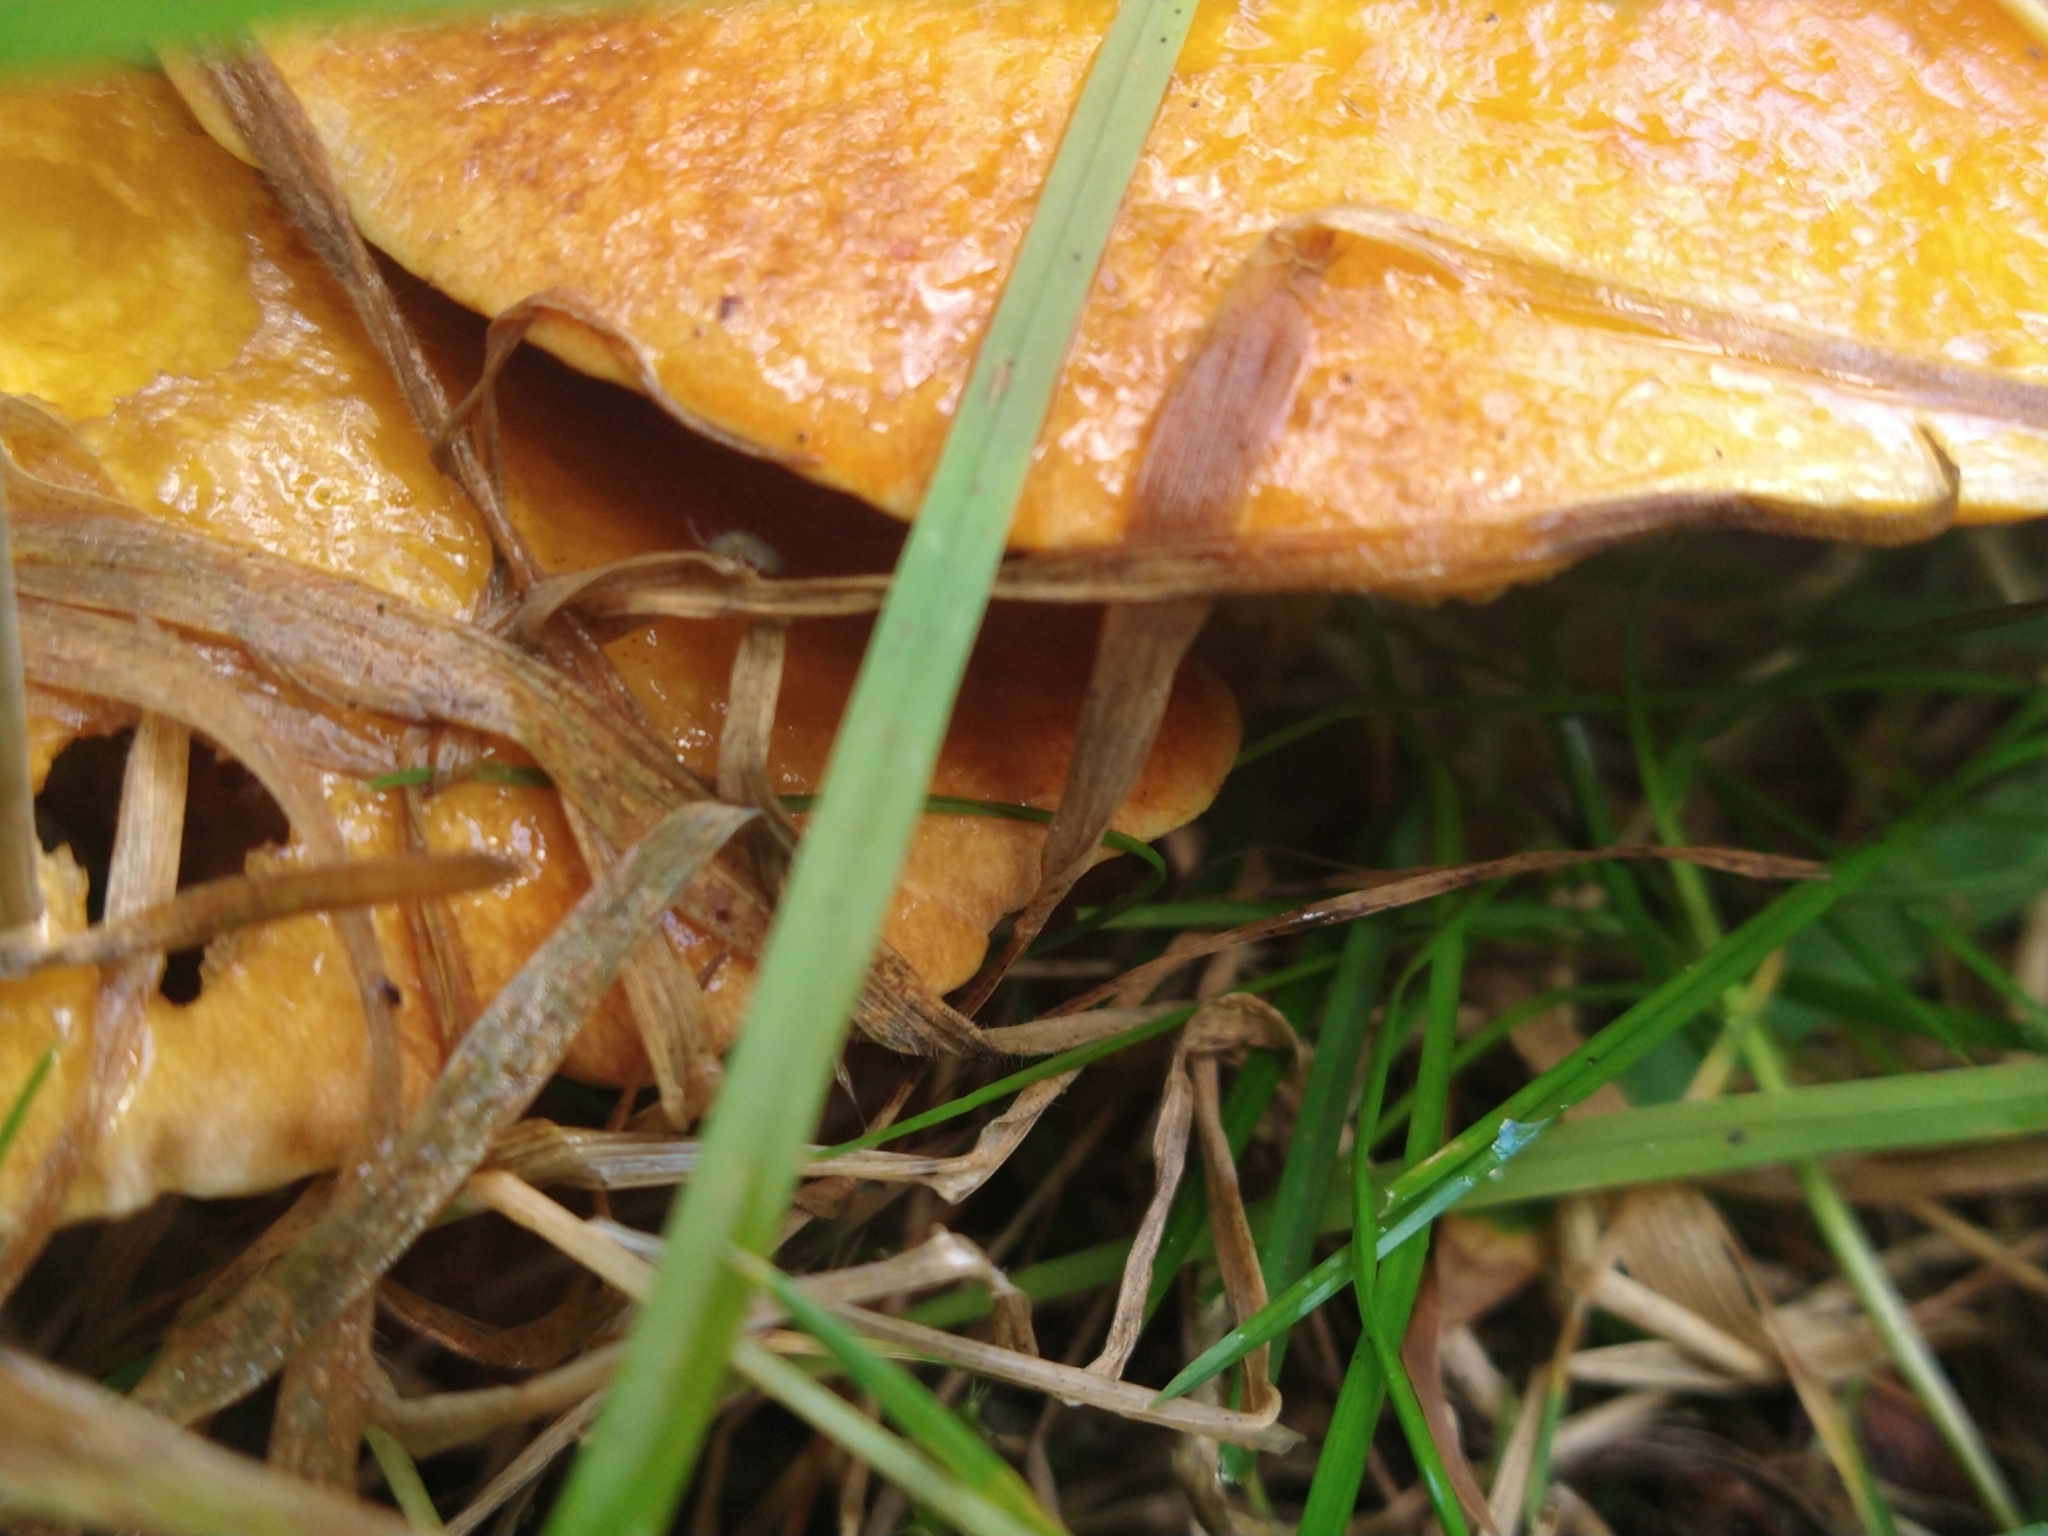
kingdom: Fungi
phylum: Basidiomycota
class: Agaricomycetes
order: Boletales
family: Suillaceae
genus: Suillus
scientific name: Suillus grevillei
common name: Larch bolete
